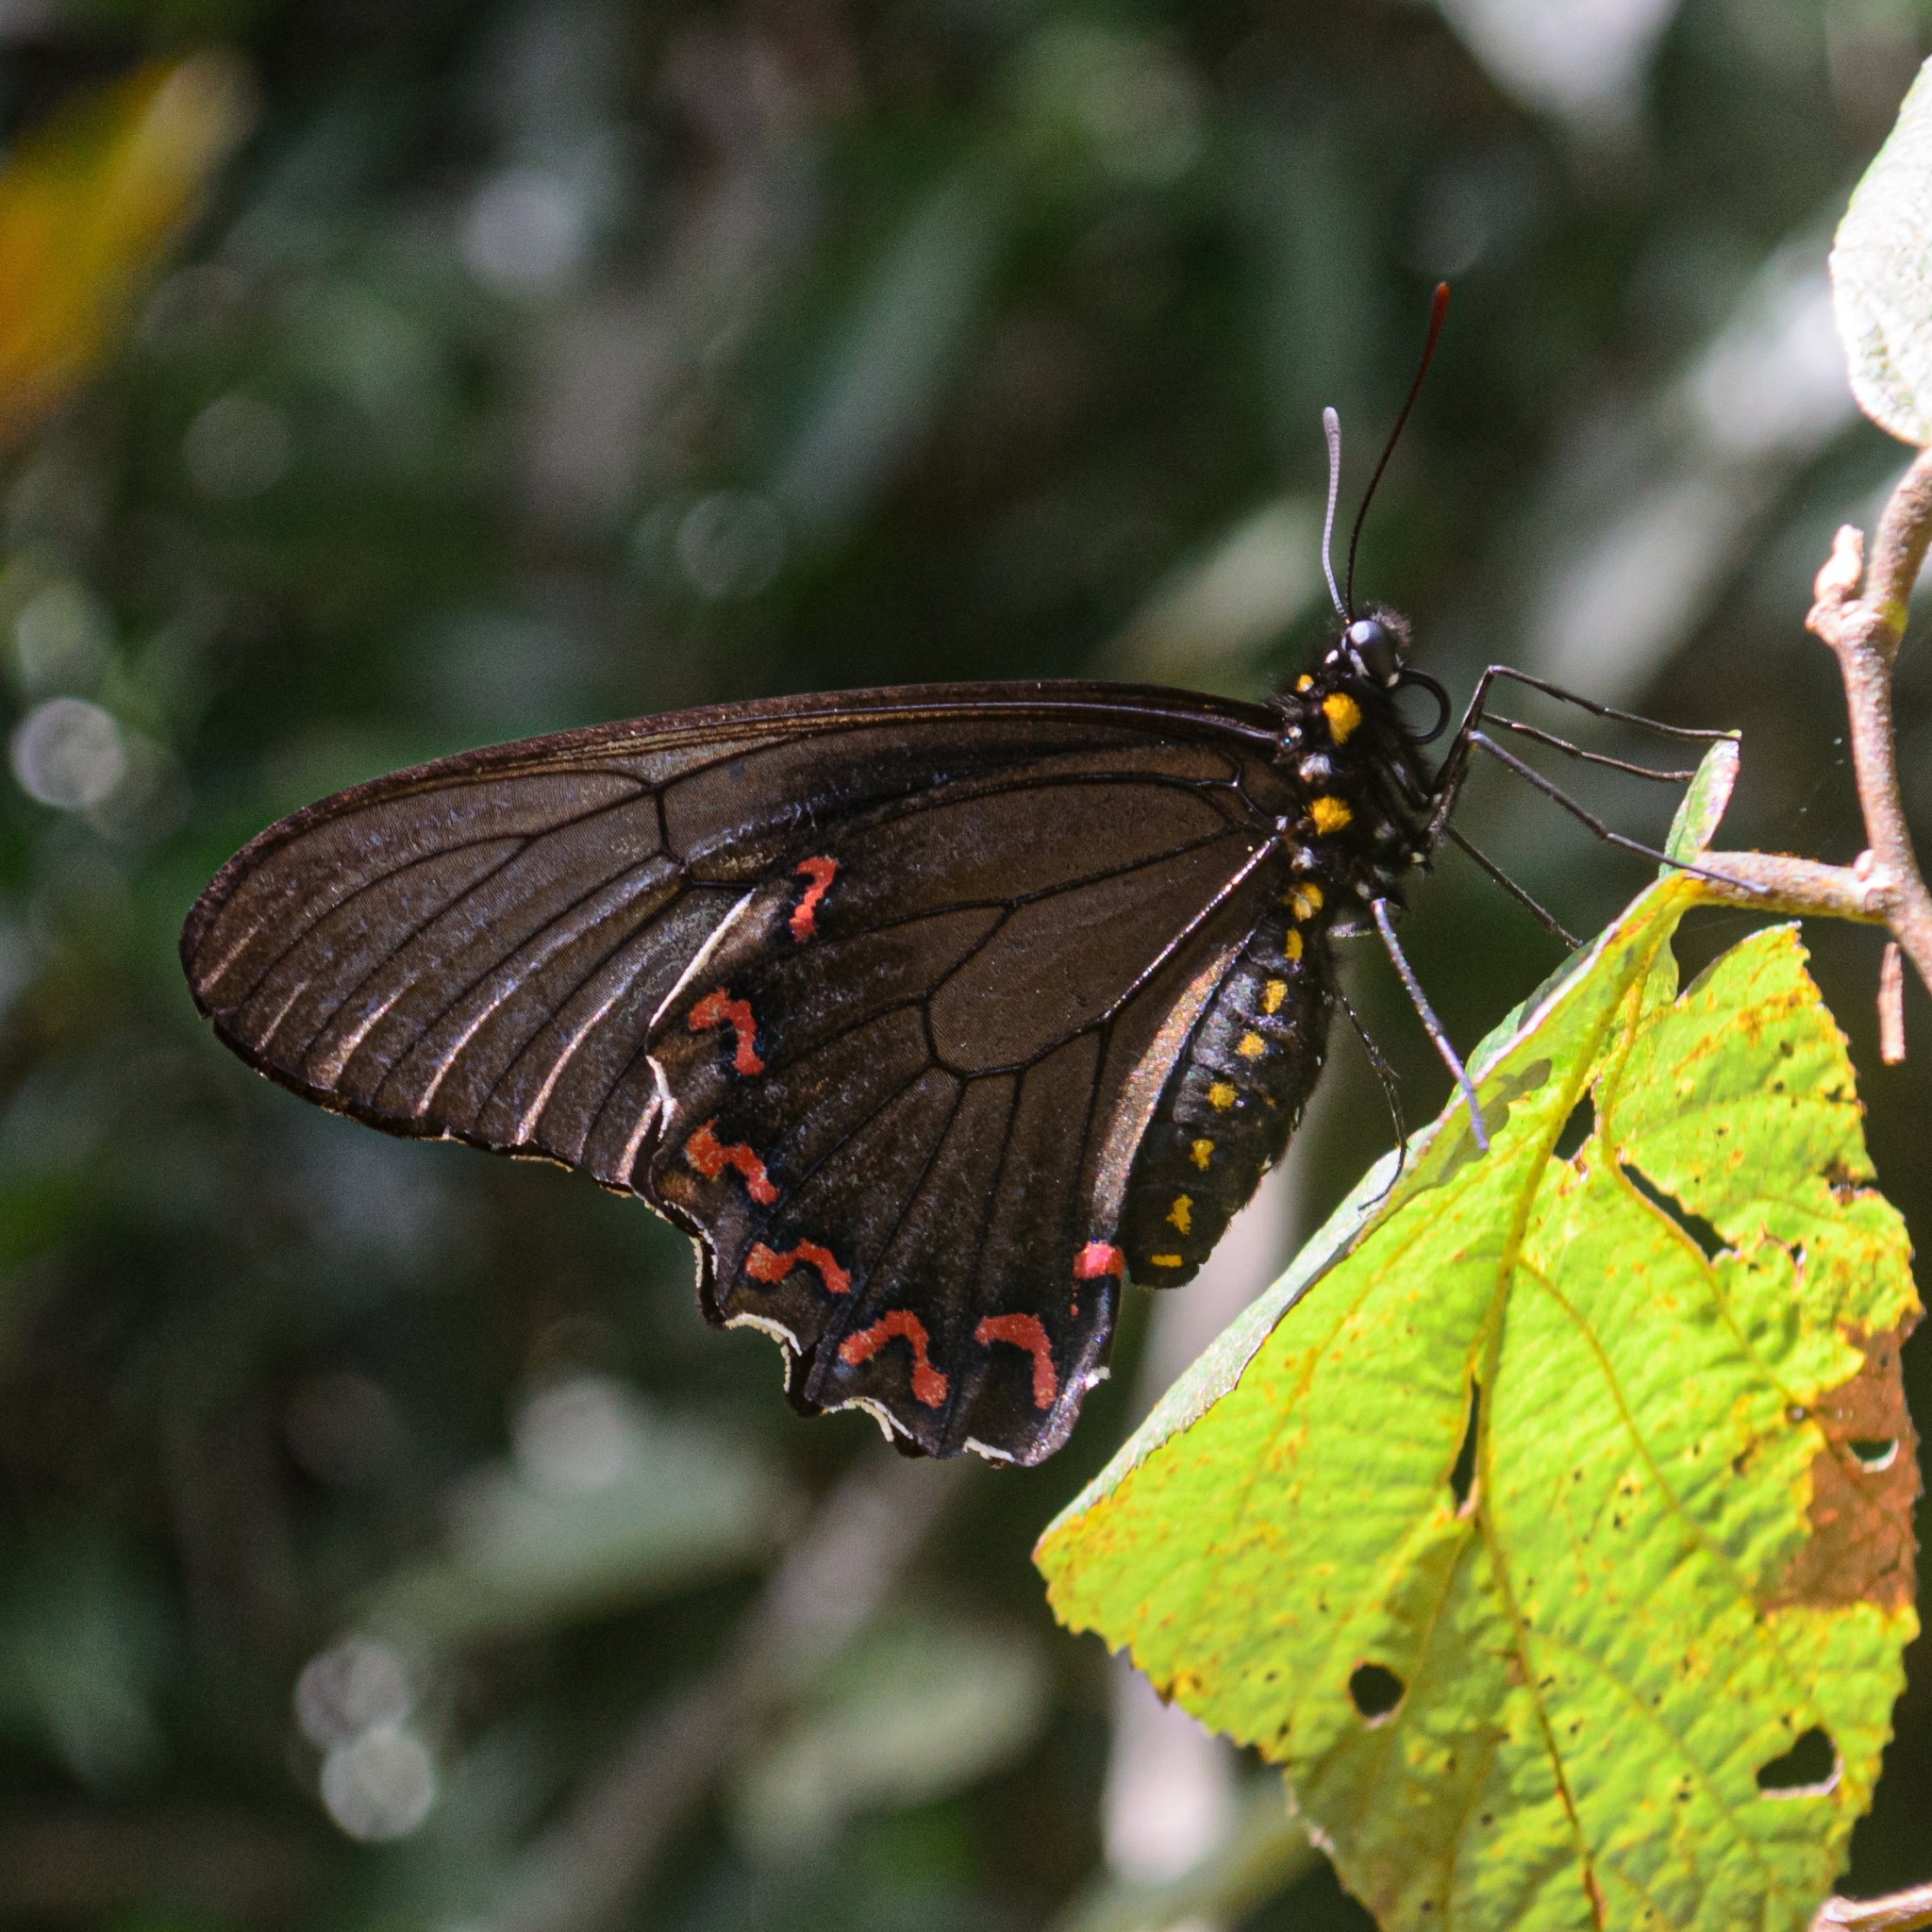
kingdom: Animalia
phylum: Arthropoda
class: Insecta
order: Lepidoptera
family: Papilionidae
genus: Battus
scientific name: Battus polystictus
